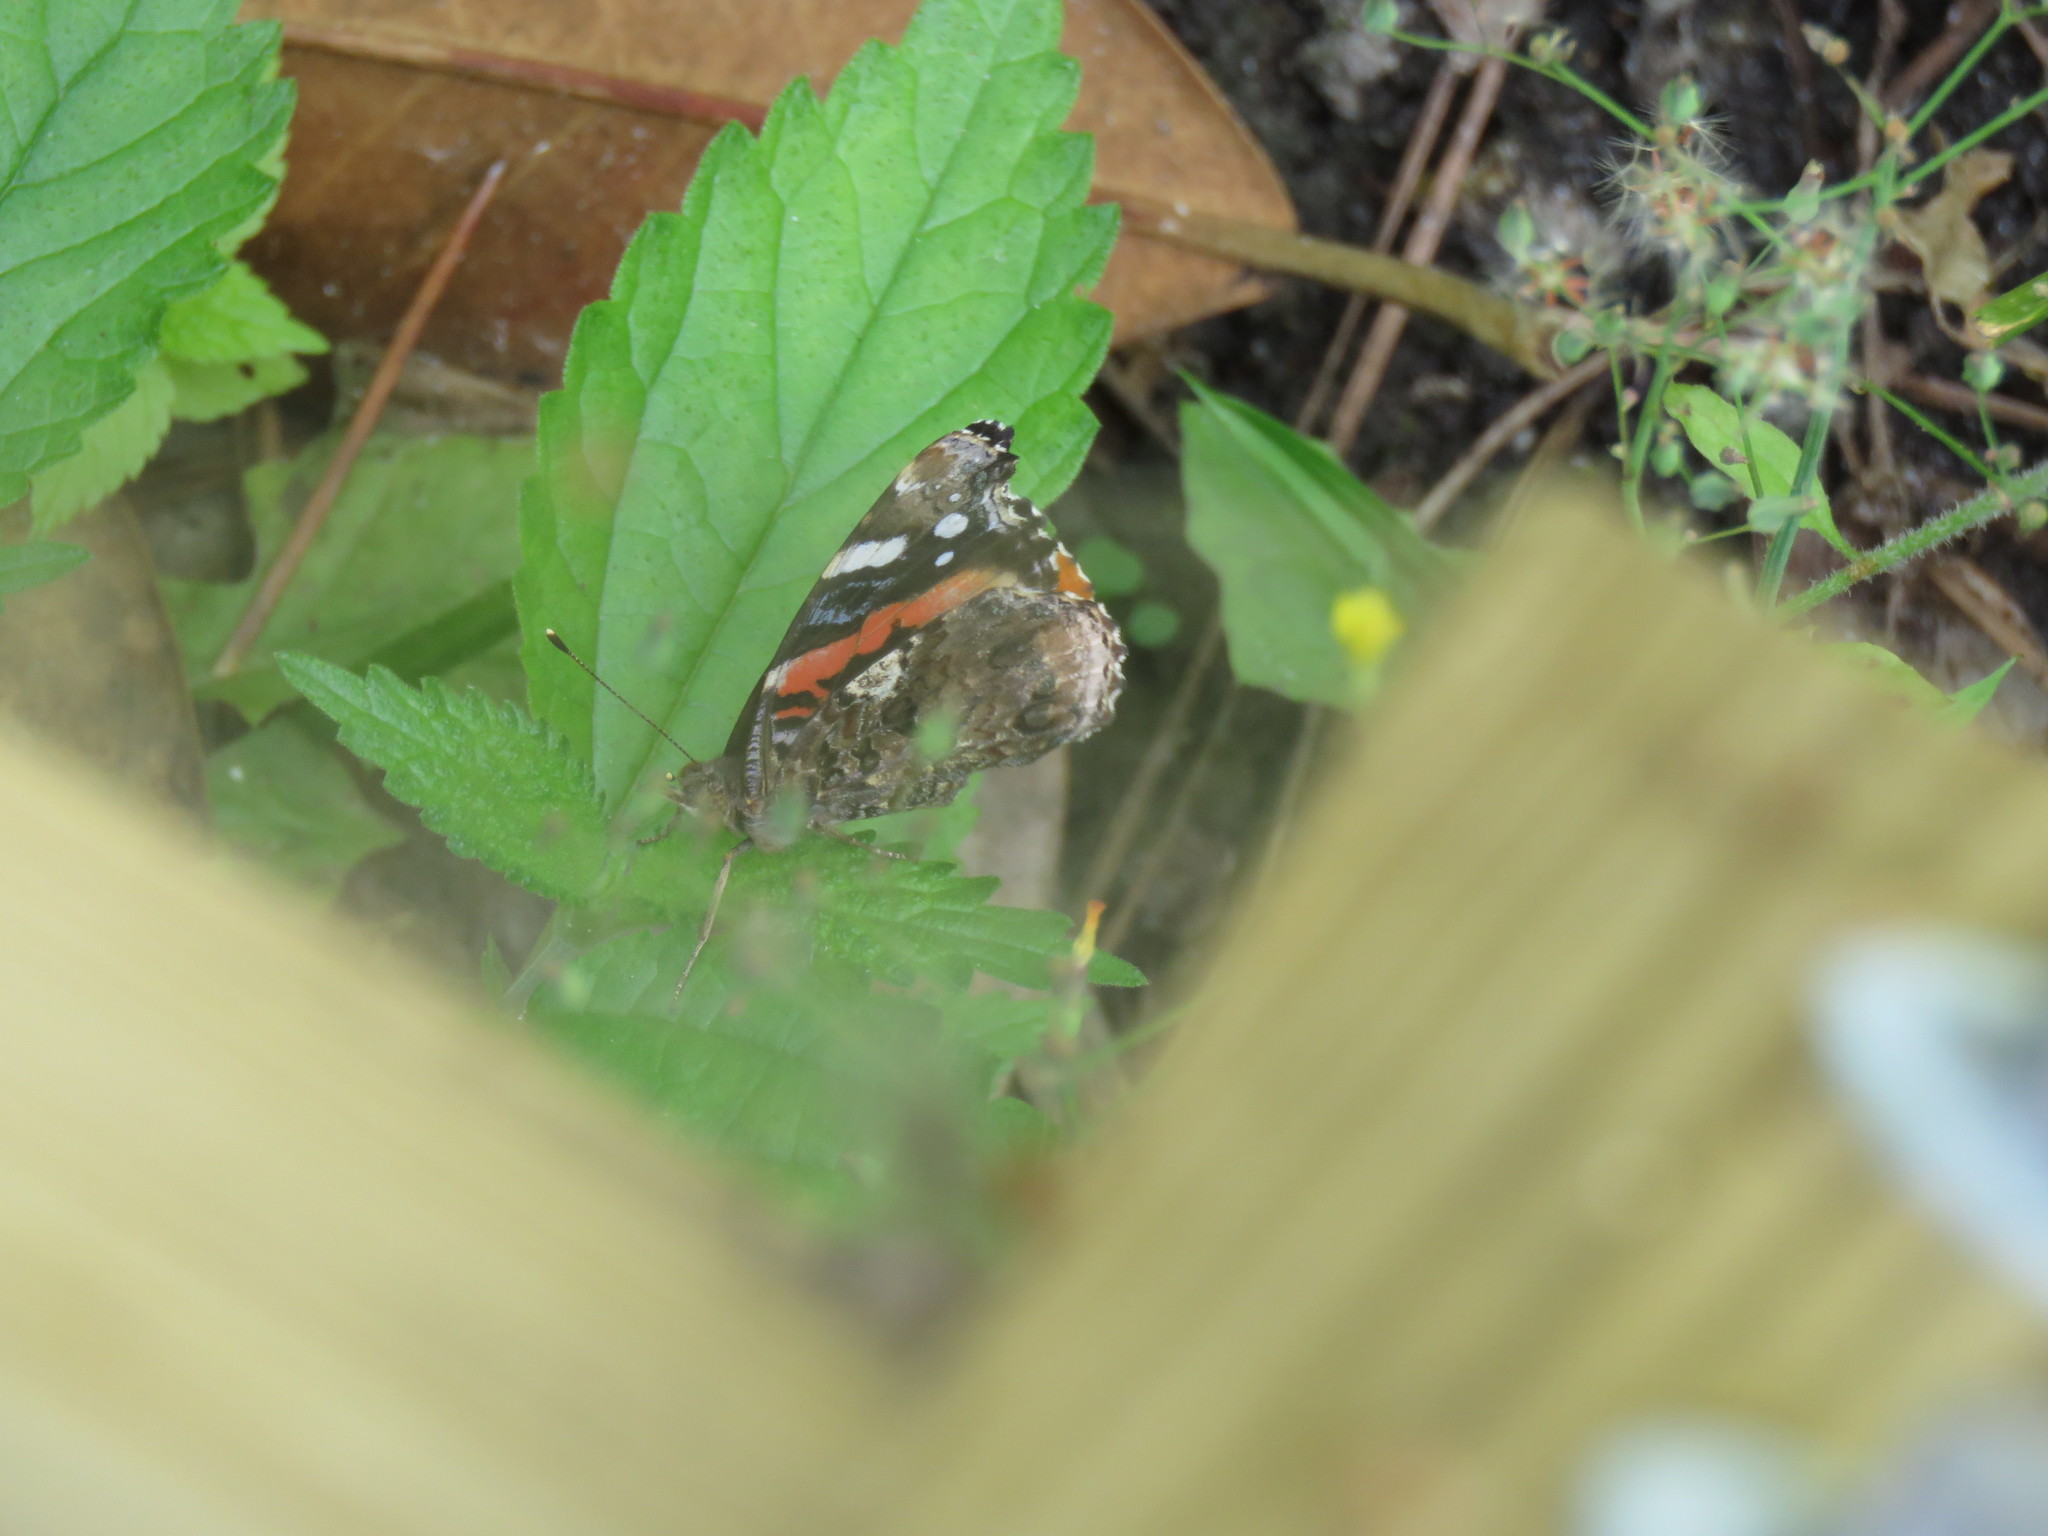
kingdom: Animalia
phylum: Arthropoda
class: Insecta
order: Lepidoptera
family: Nymphalidae
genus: Vanessa
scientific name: Vanessa atalanta
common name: Red admiral
